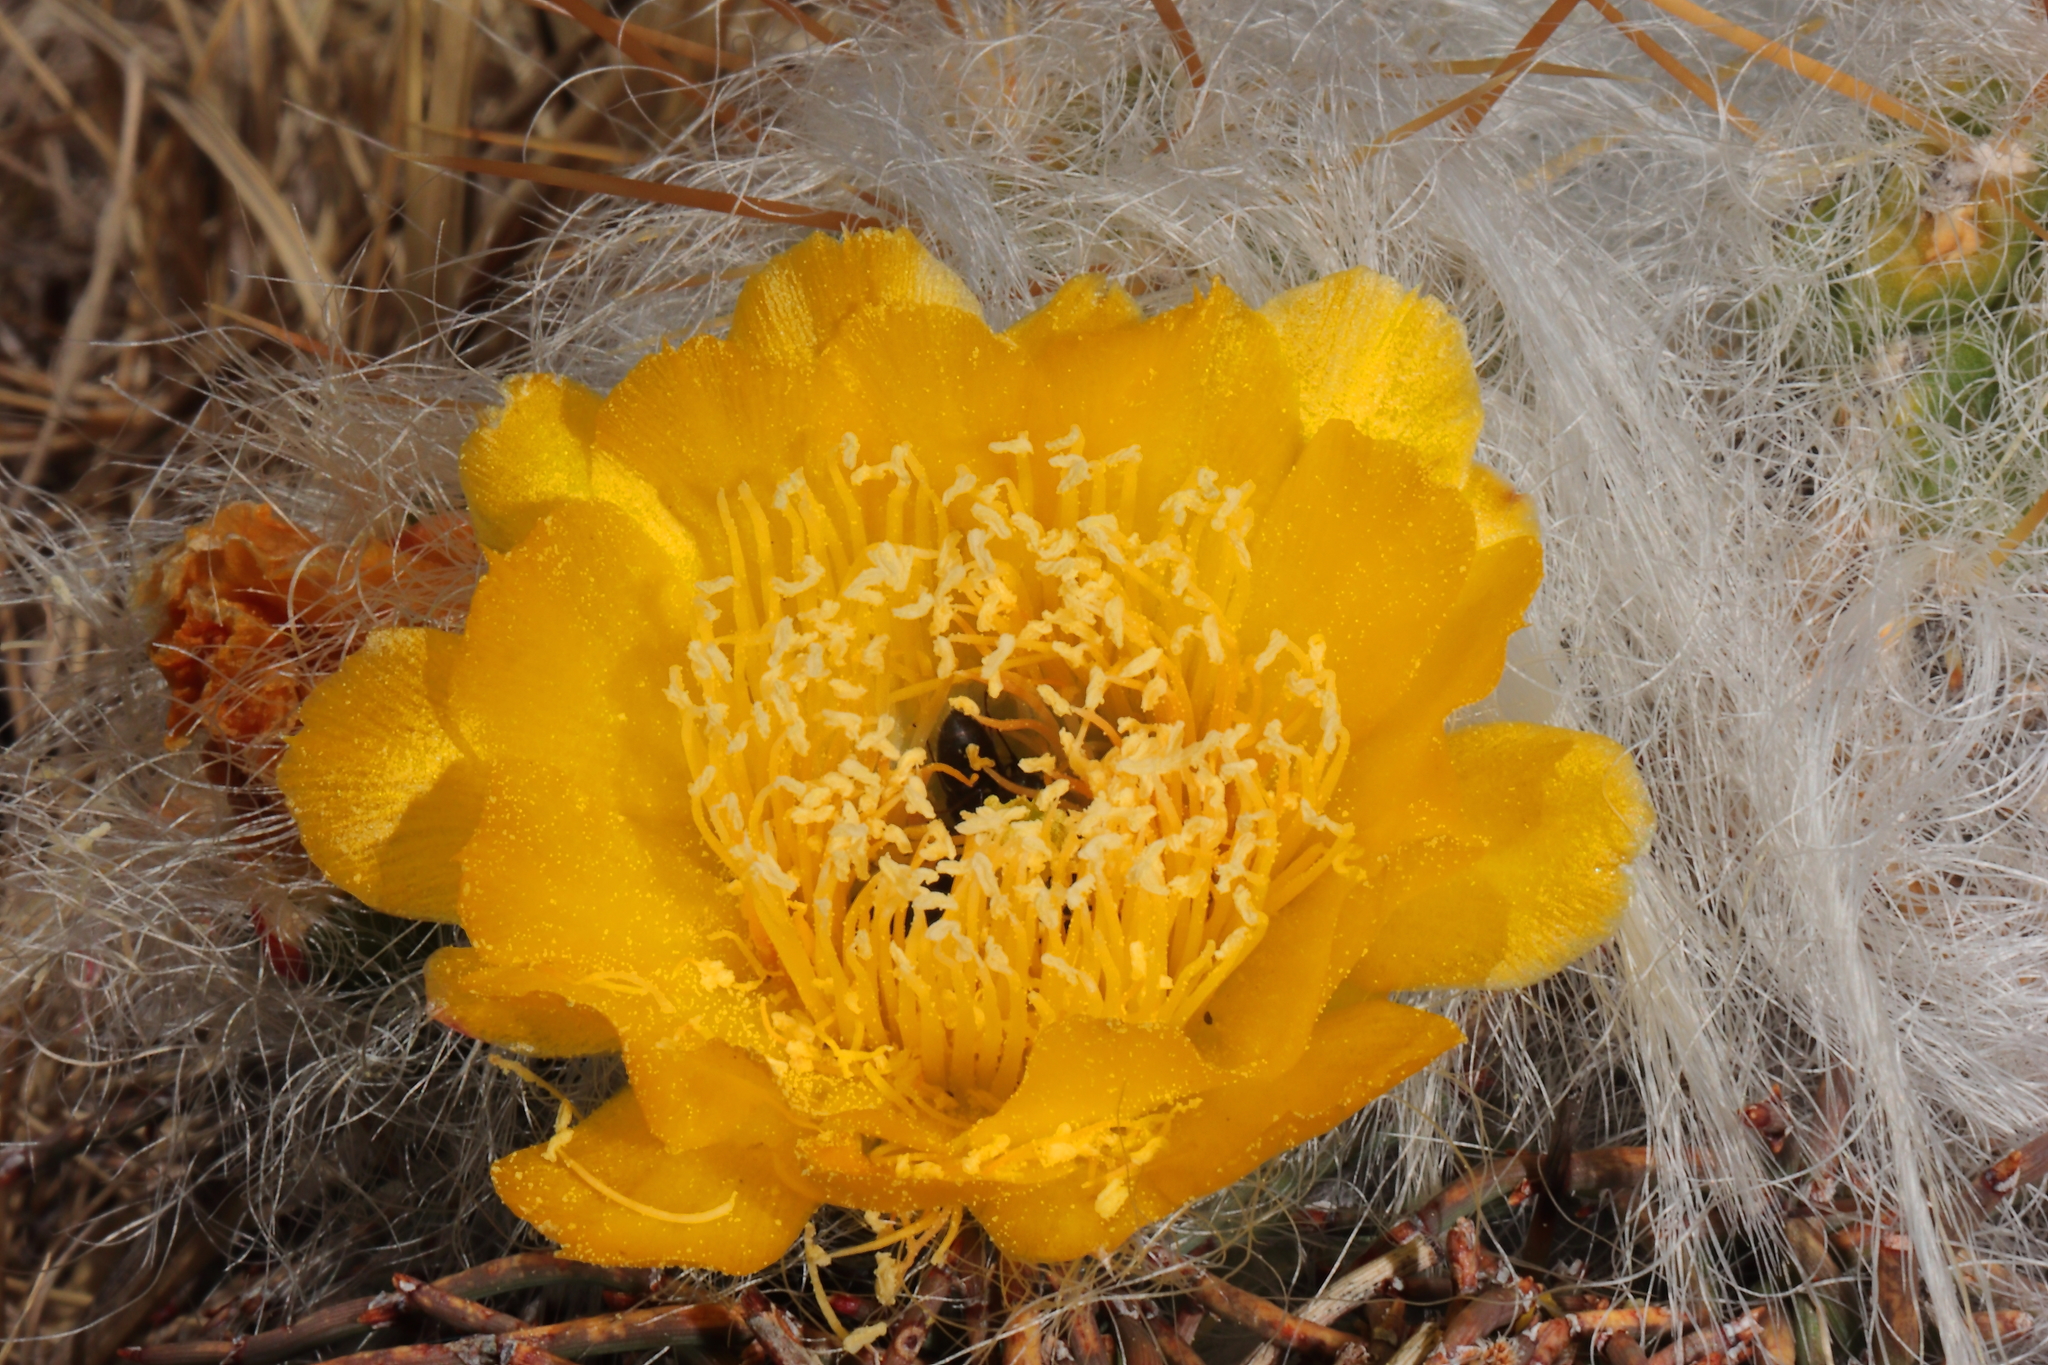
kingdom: Plantae
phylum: Tracheophyta
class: Magnoliopsida
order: Caryophyllales
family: Cactaceae
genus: Austrocylindropuntia
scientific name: Austrocylindropuntia floccosa
